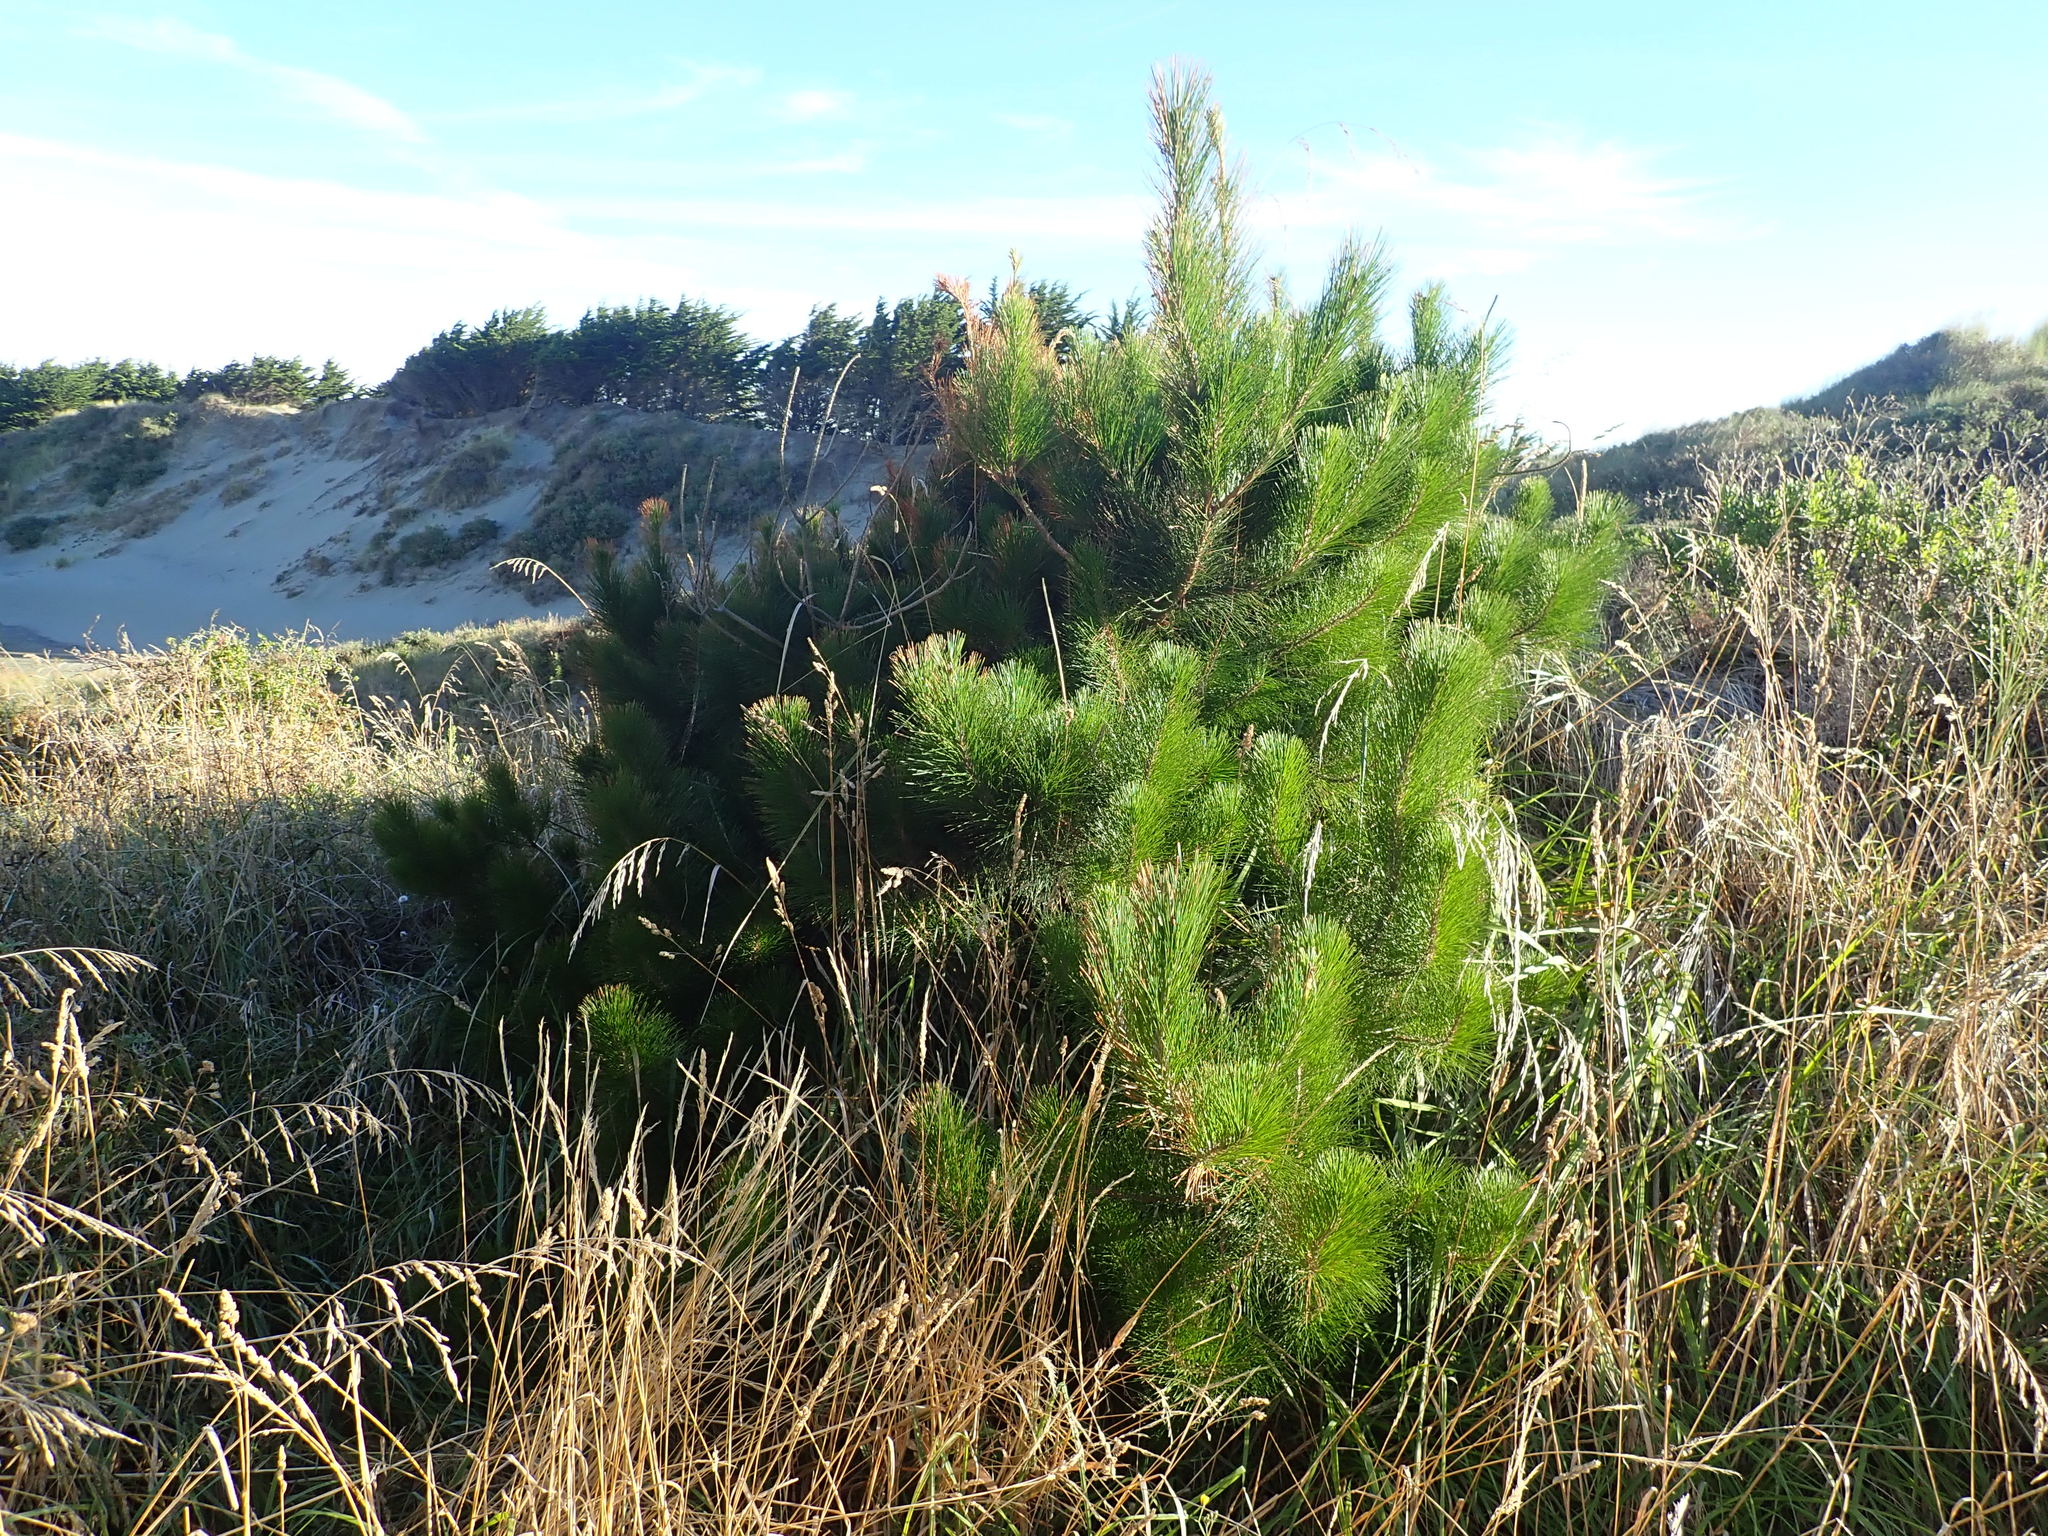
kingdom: Plantae
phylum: Tracheophyta
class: Pinopsida
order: Pinales
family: Pinaceae
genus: Pinus
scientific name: Pinus radiata
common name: Monterey pine
